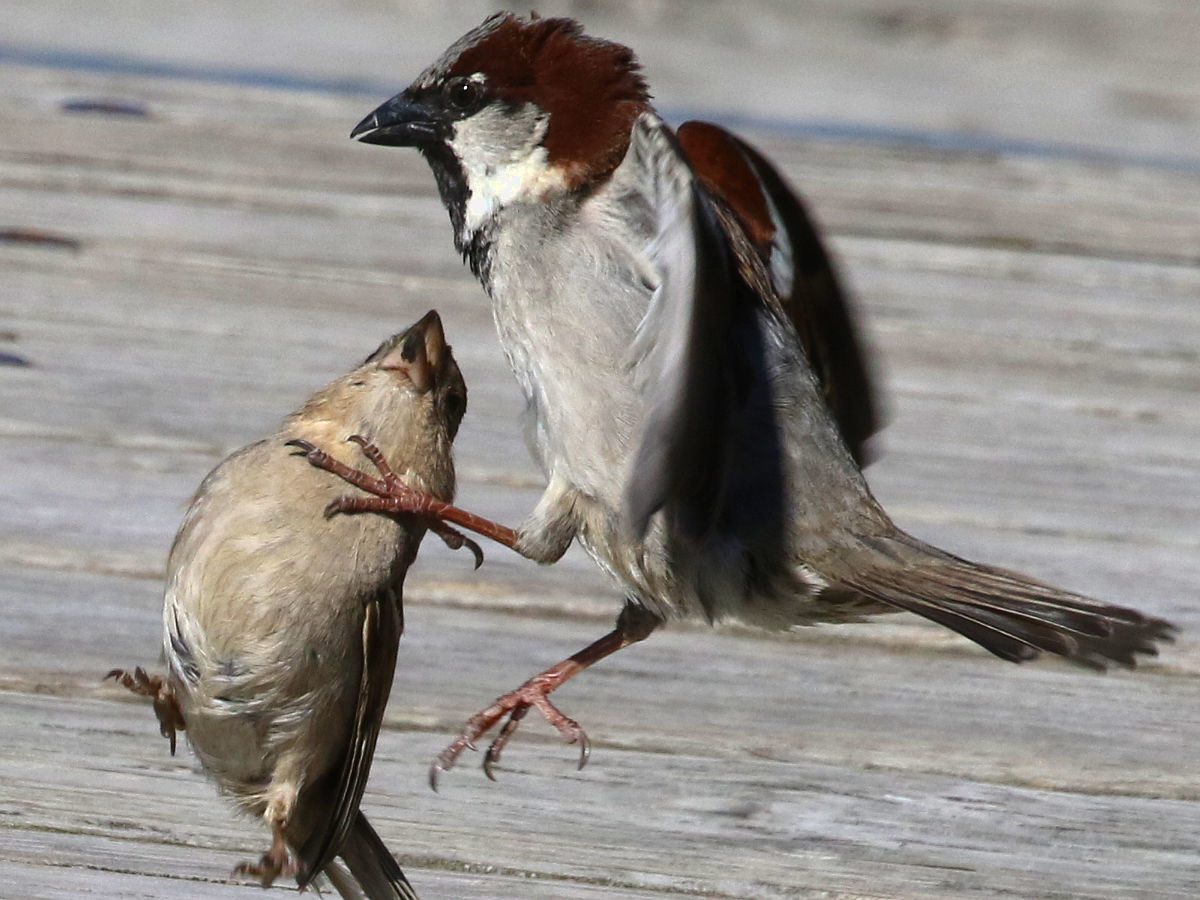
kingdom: Animalia
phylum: Chordata
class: Aves
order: Passeriformes
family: Passeridae
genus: Passer
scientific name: Passer domesticus
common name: House sparrow
